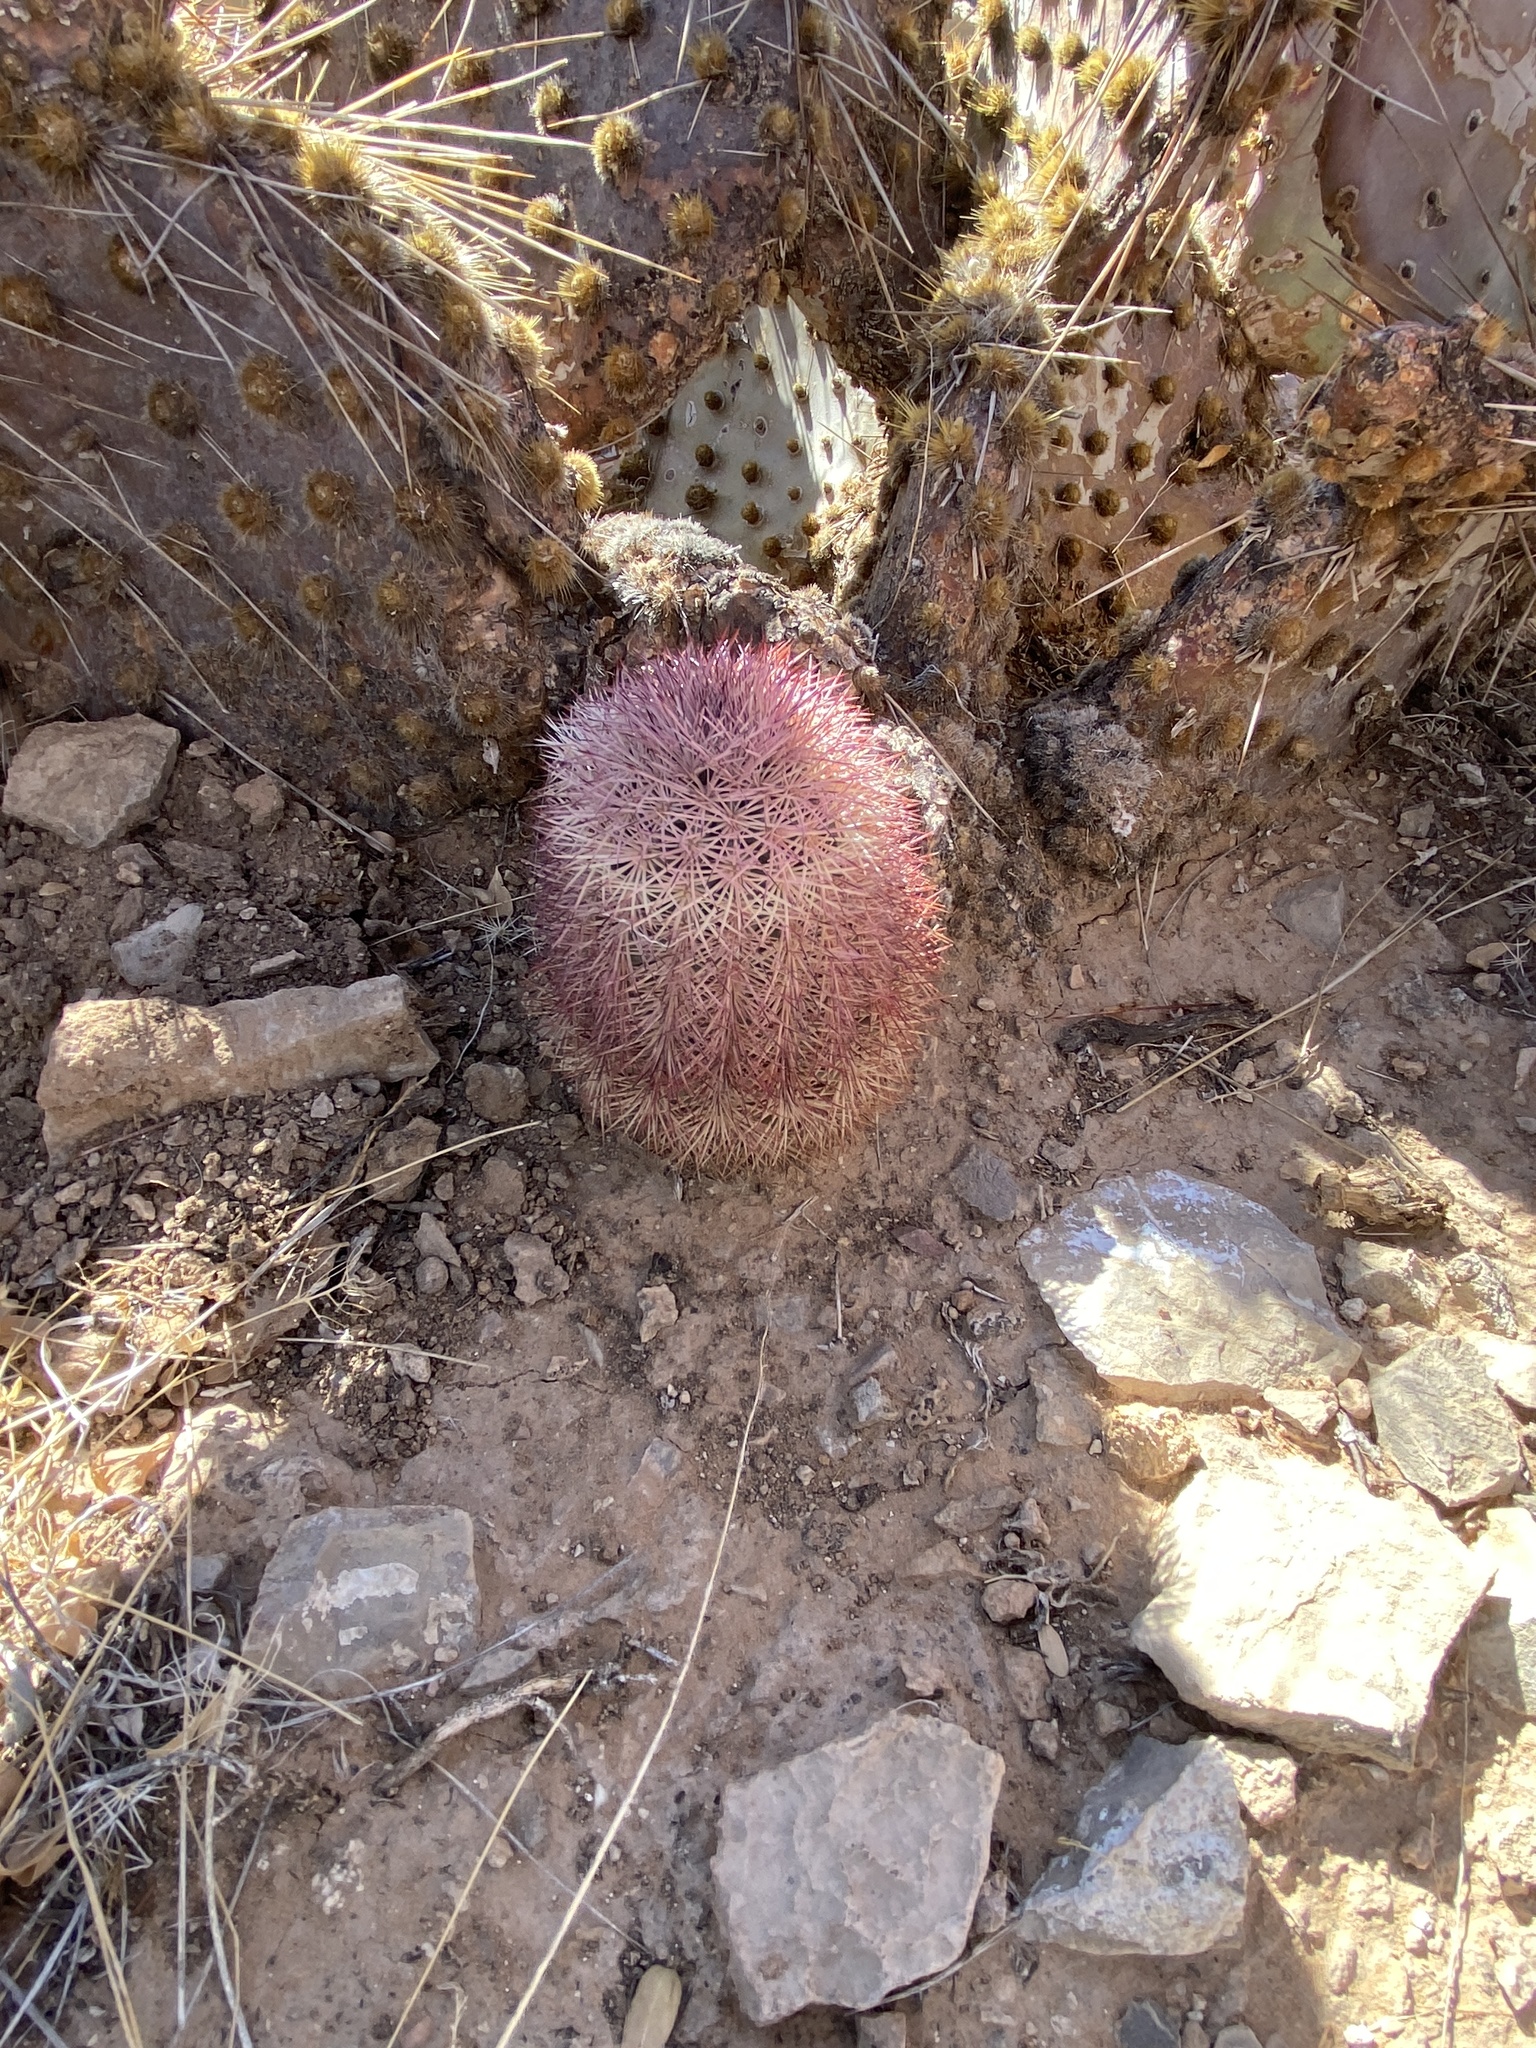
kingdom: Plantae
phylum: Tracheophyta
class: Magnoliopsida
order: Caryophyllales
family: Cactaceae
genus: Echinocereus
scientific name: Echinocereus dasyacanthus
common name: Spiny hedgehog cactus
